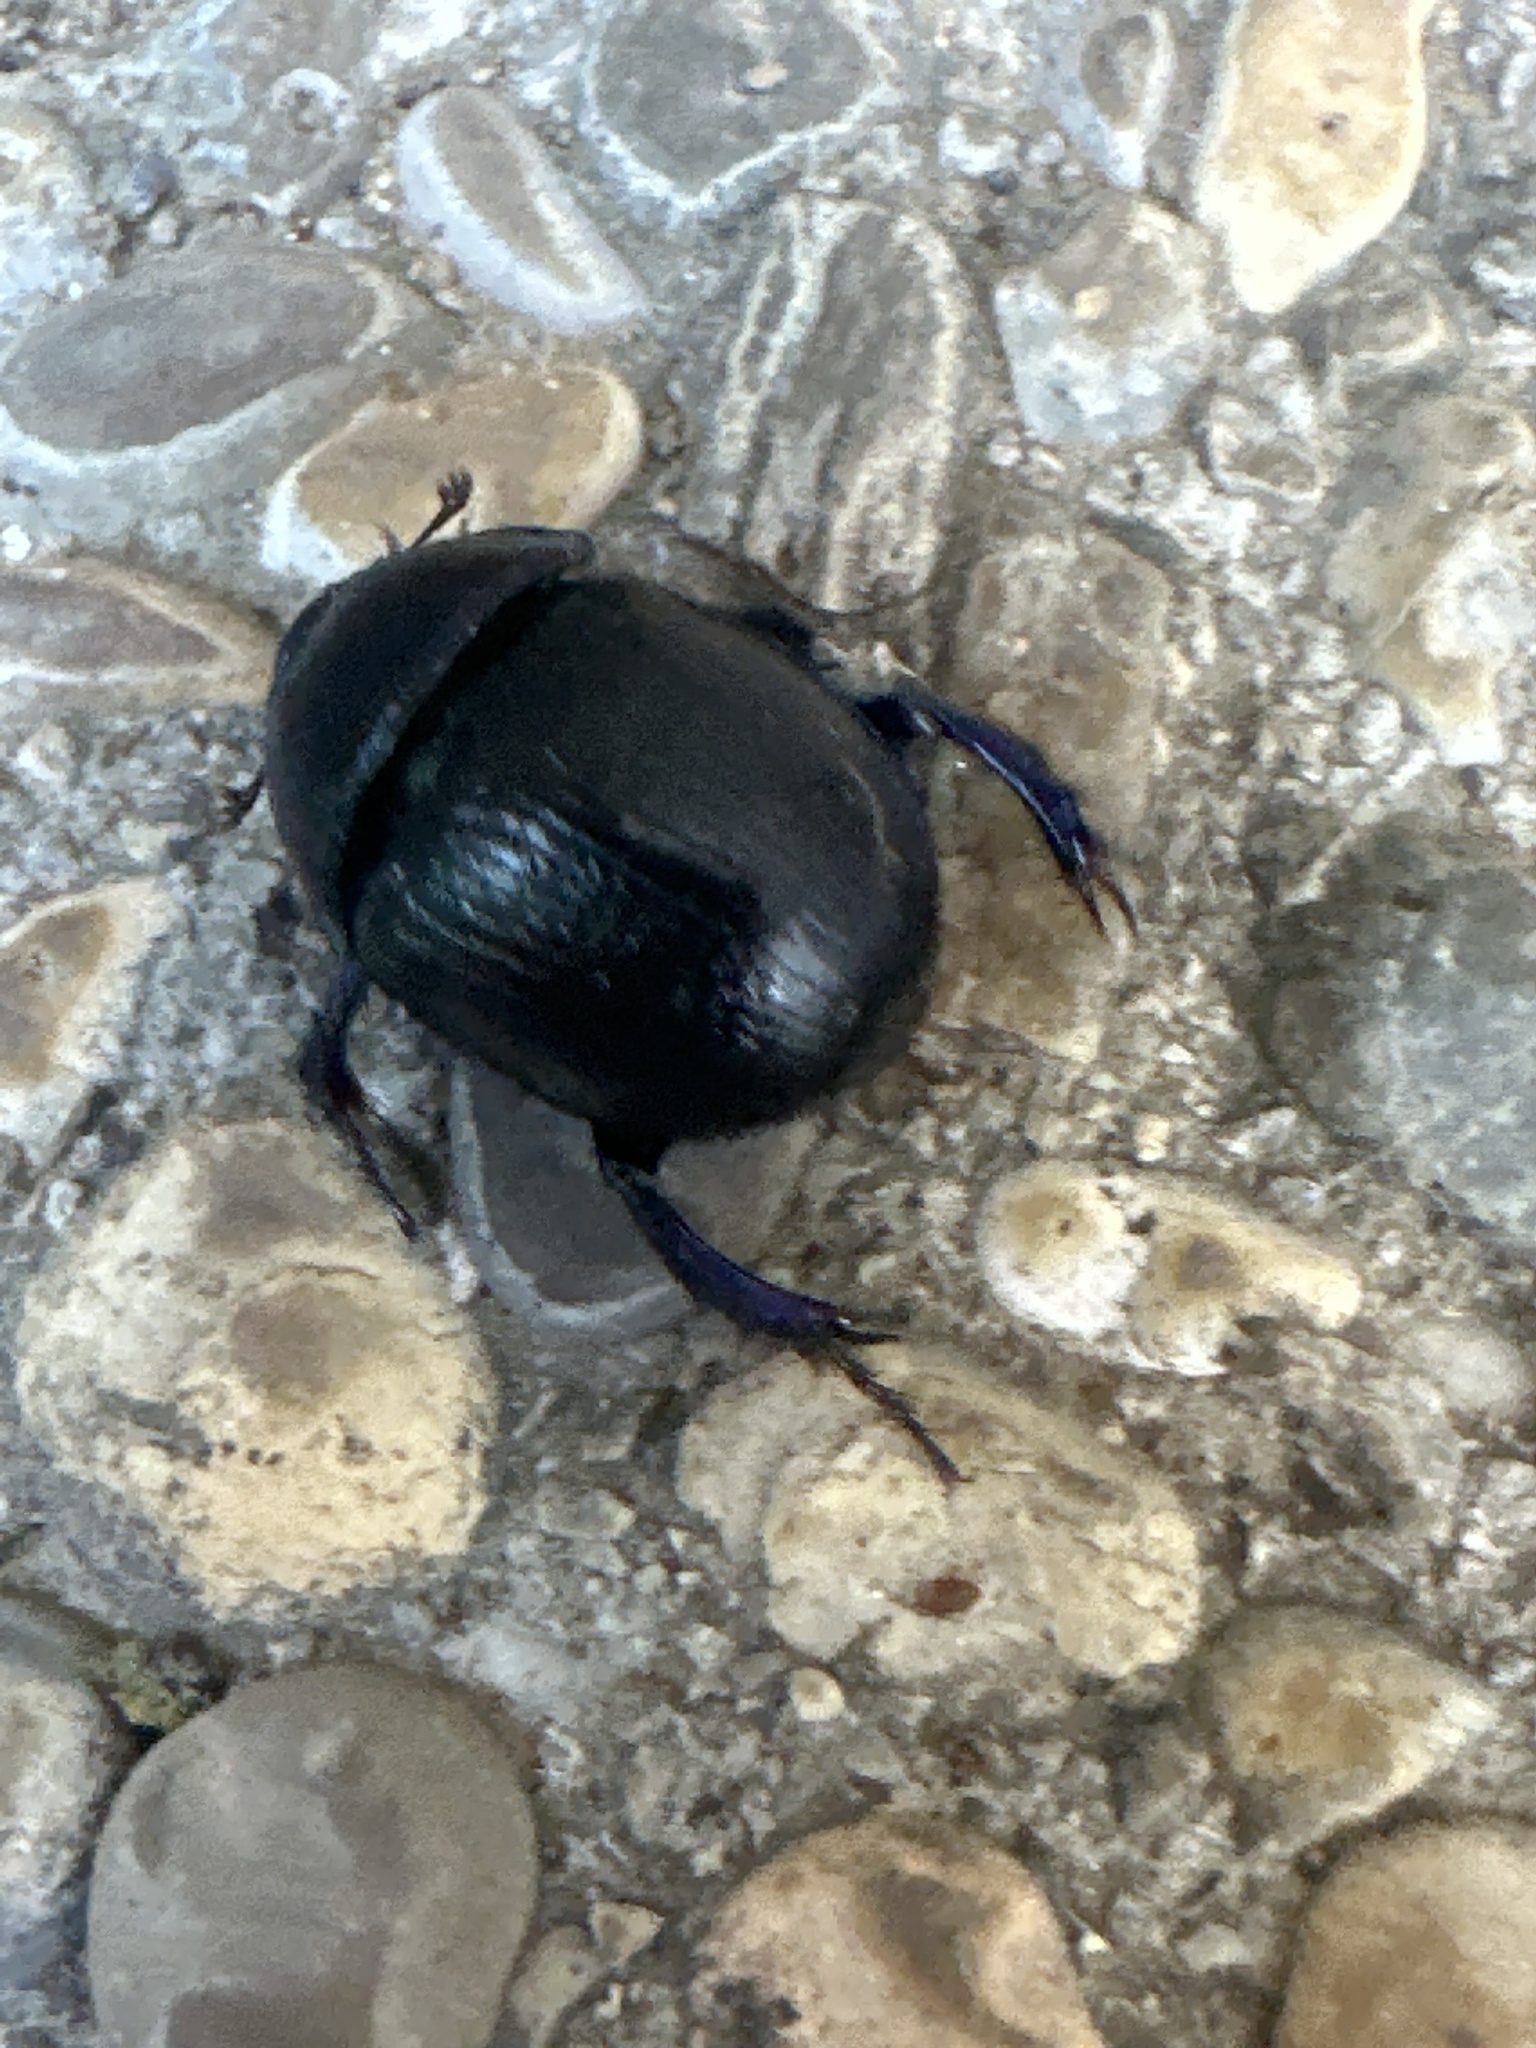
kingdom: Animalia
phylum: Arthropoda
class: Insecta
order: Coleoptera
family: Geotrupidae
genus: Anoplotrupes
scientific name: Anoplotrupes stercorosus
